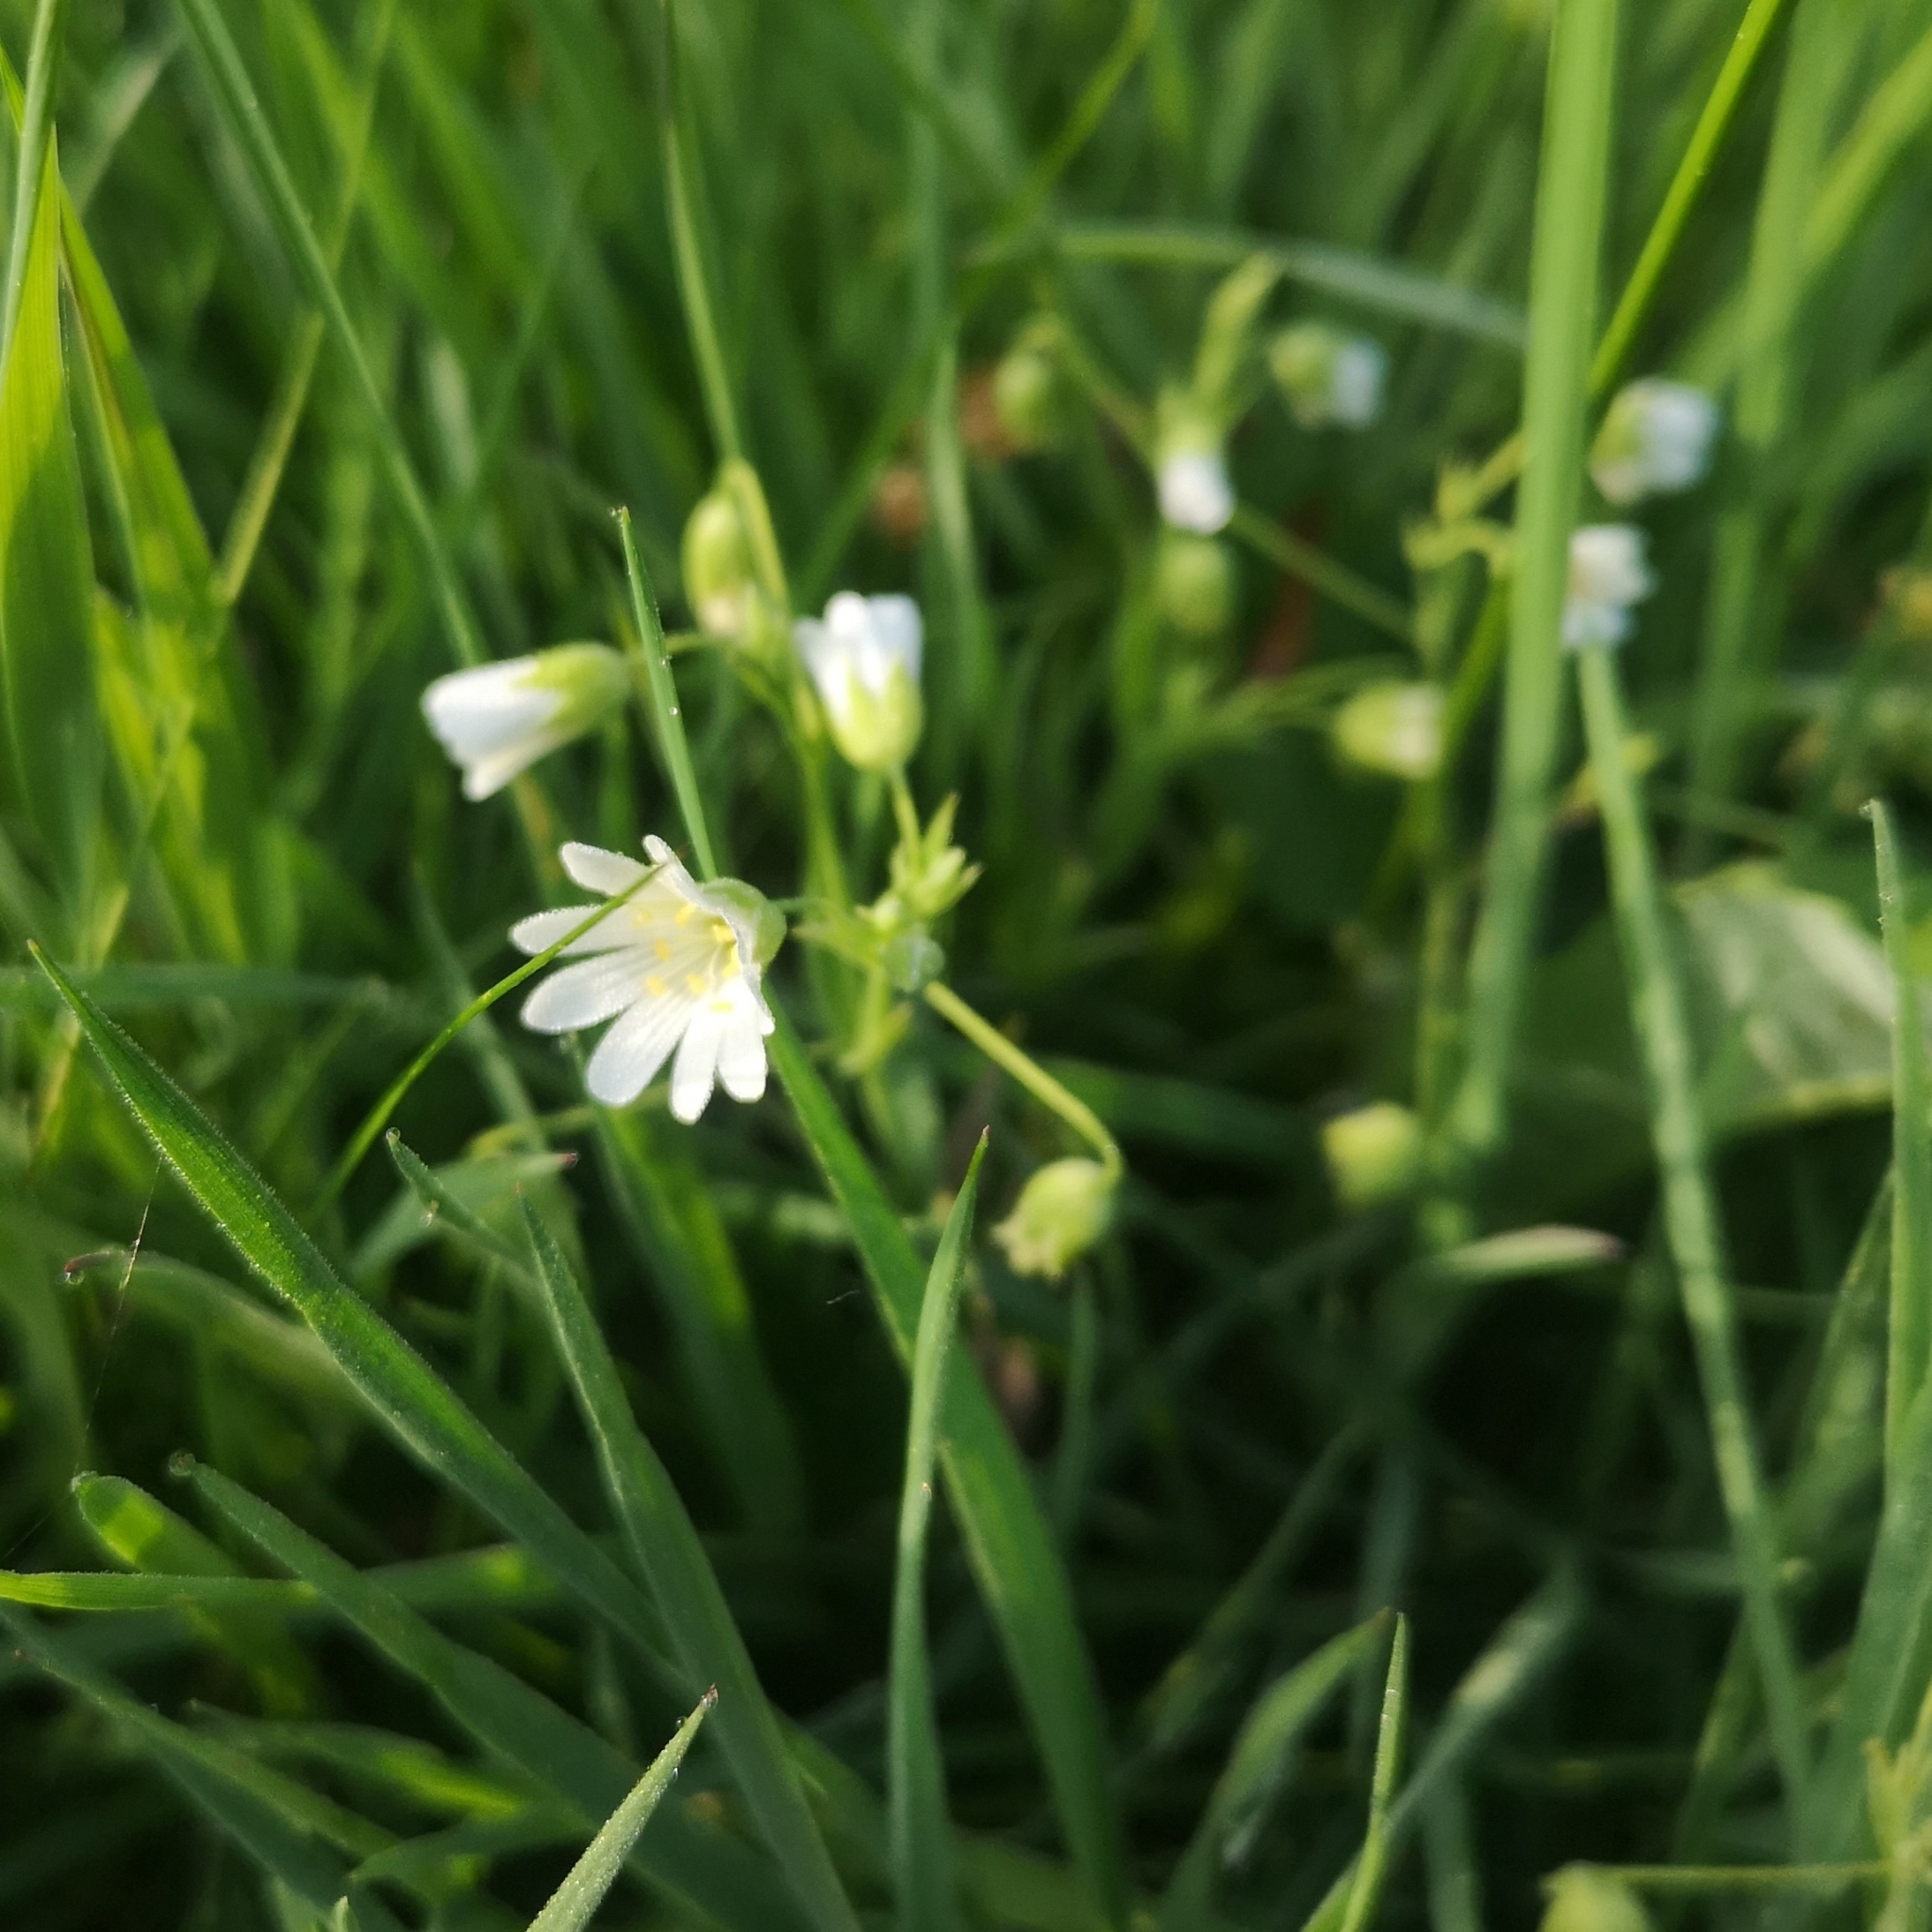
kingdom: Plantae
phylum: Tracheophyta
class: Magnoliopsida
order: Caryophyllales
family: Caryophyllaceae
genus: Rabelera
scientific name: Rabelera holostea
